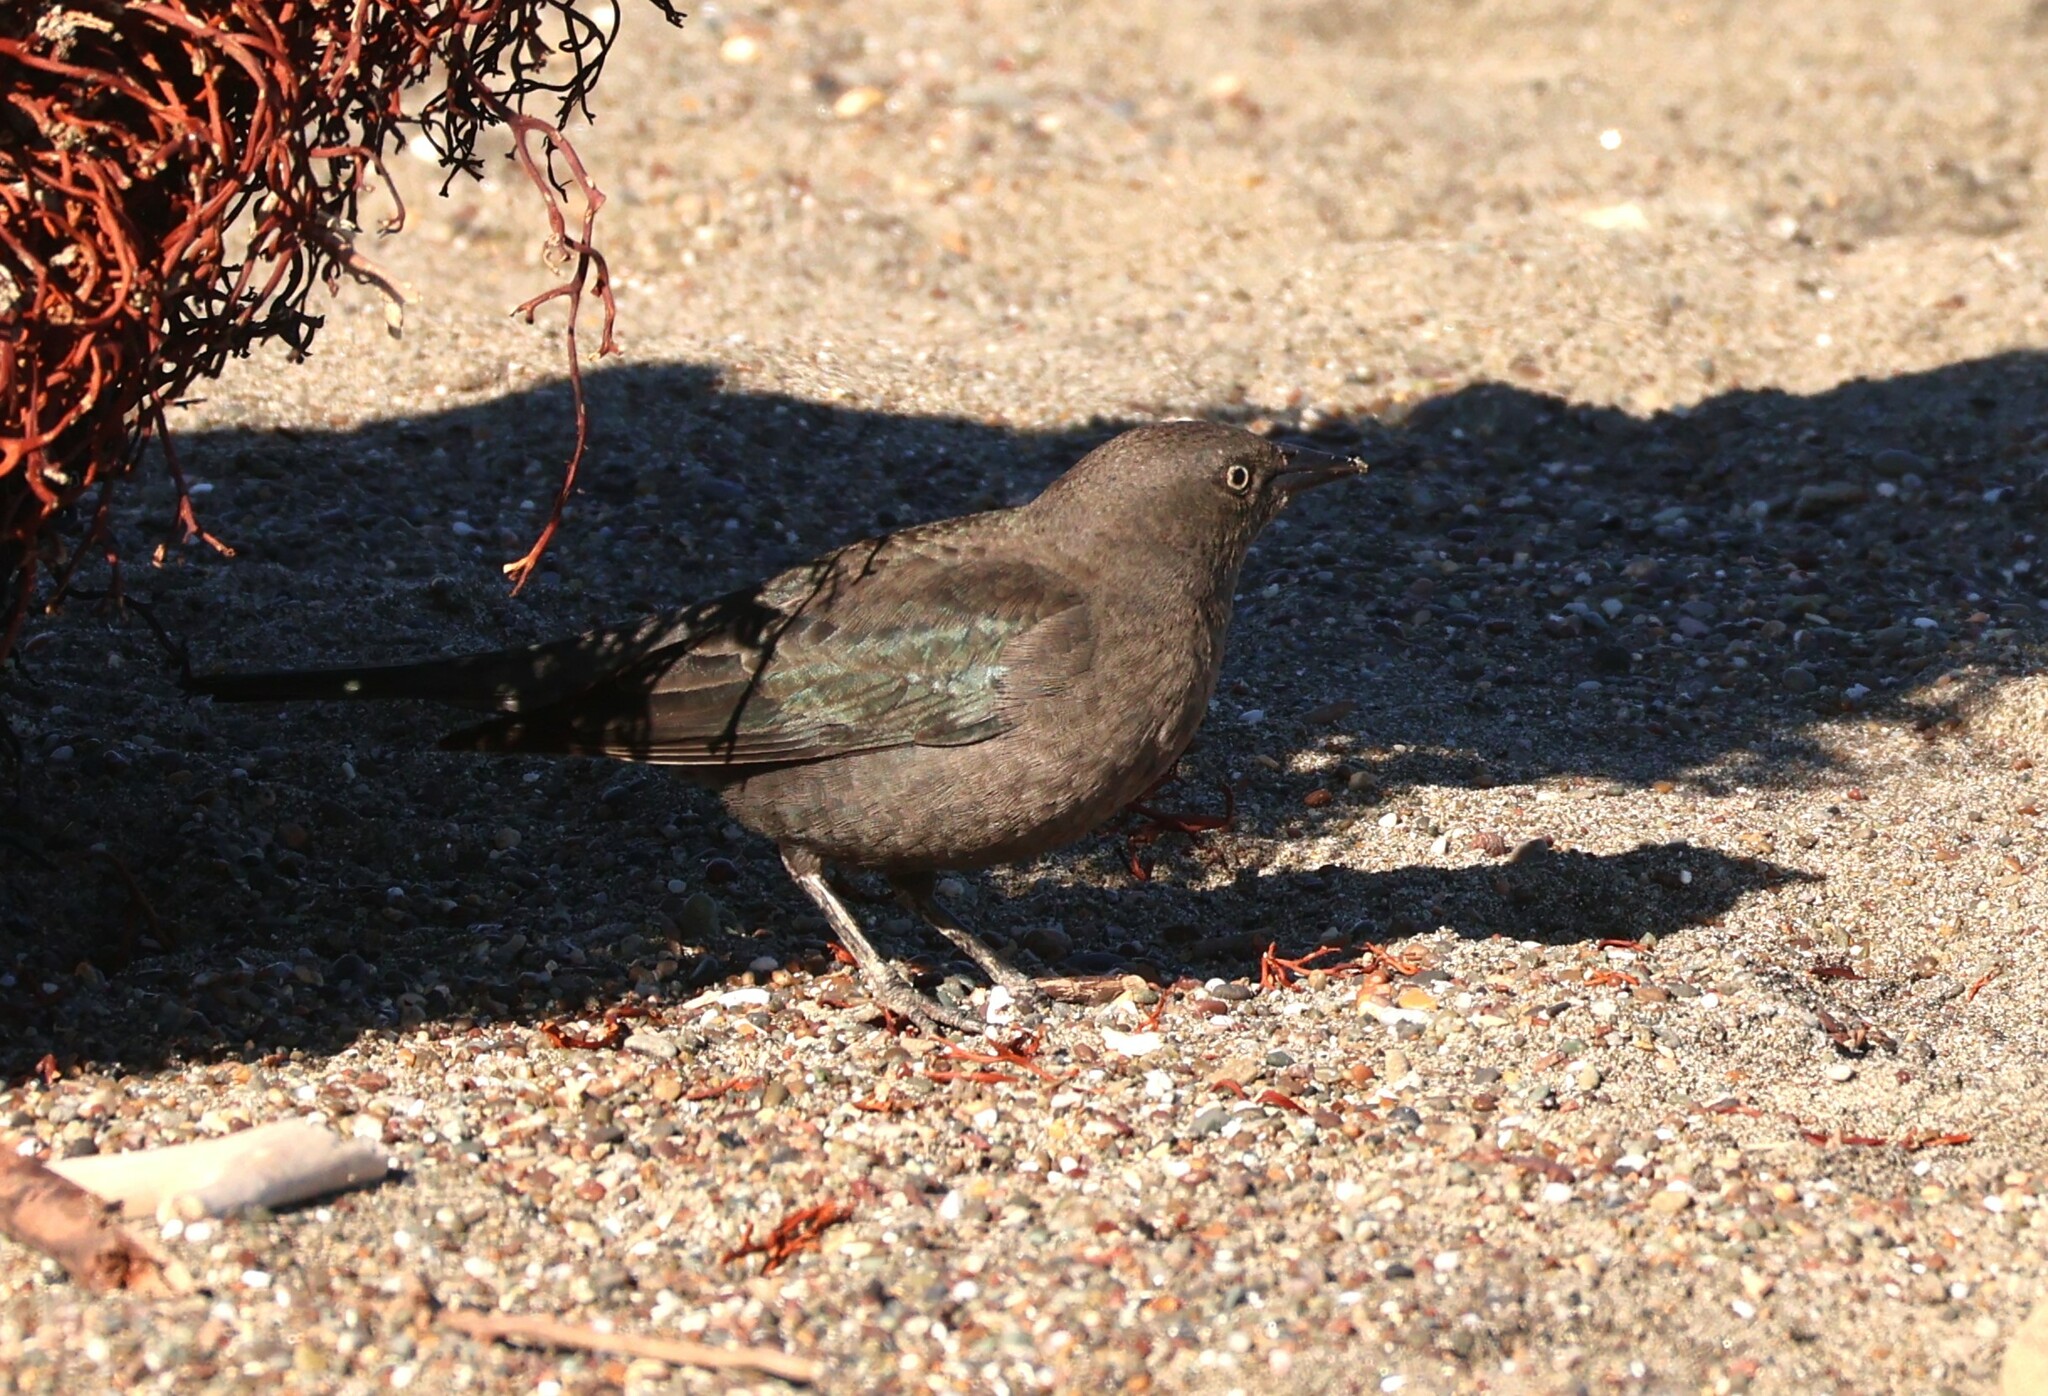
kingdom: Animalia
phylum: Chordata
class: Aves
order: Passeriformes
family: Icteridae
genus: Euphagus
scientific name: Euphagus cyanocephalus
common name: Brewer's blackbird
